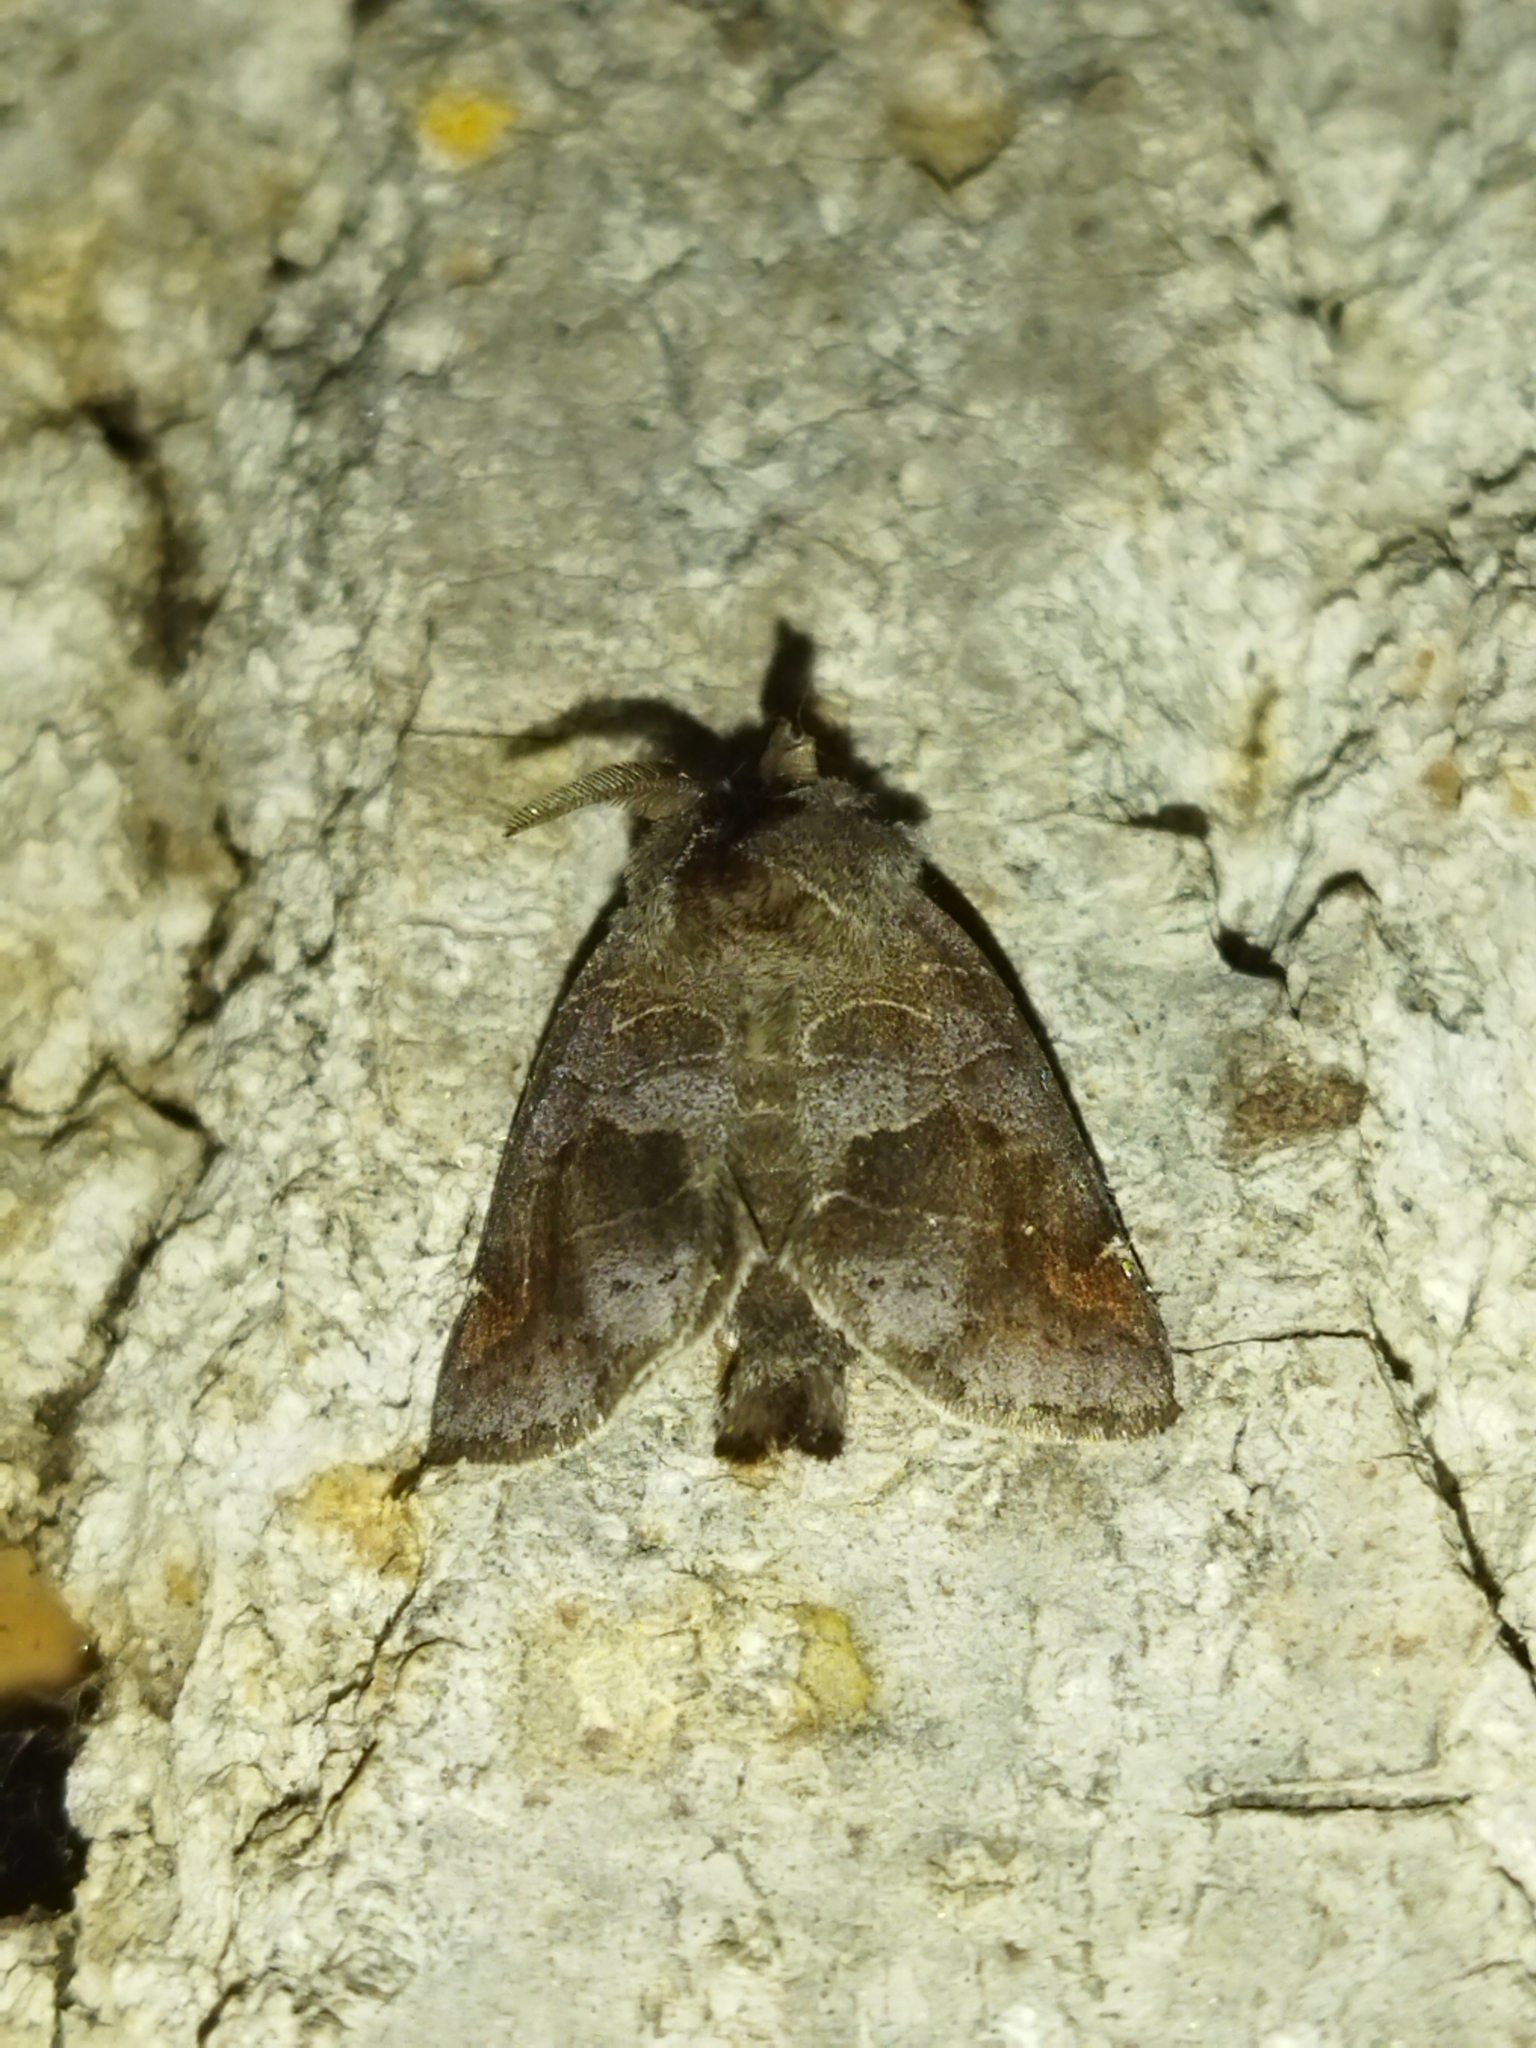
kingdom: Animalia
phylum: Arthropoda
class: Insecta
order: Lepidoptera
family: Notodontidae
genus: Clostera
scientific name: Clostera pigra
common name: Small chocolate-tip
